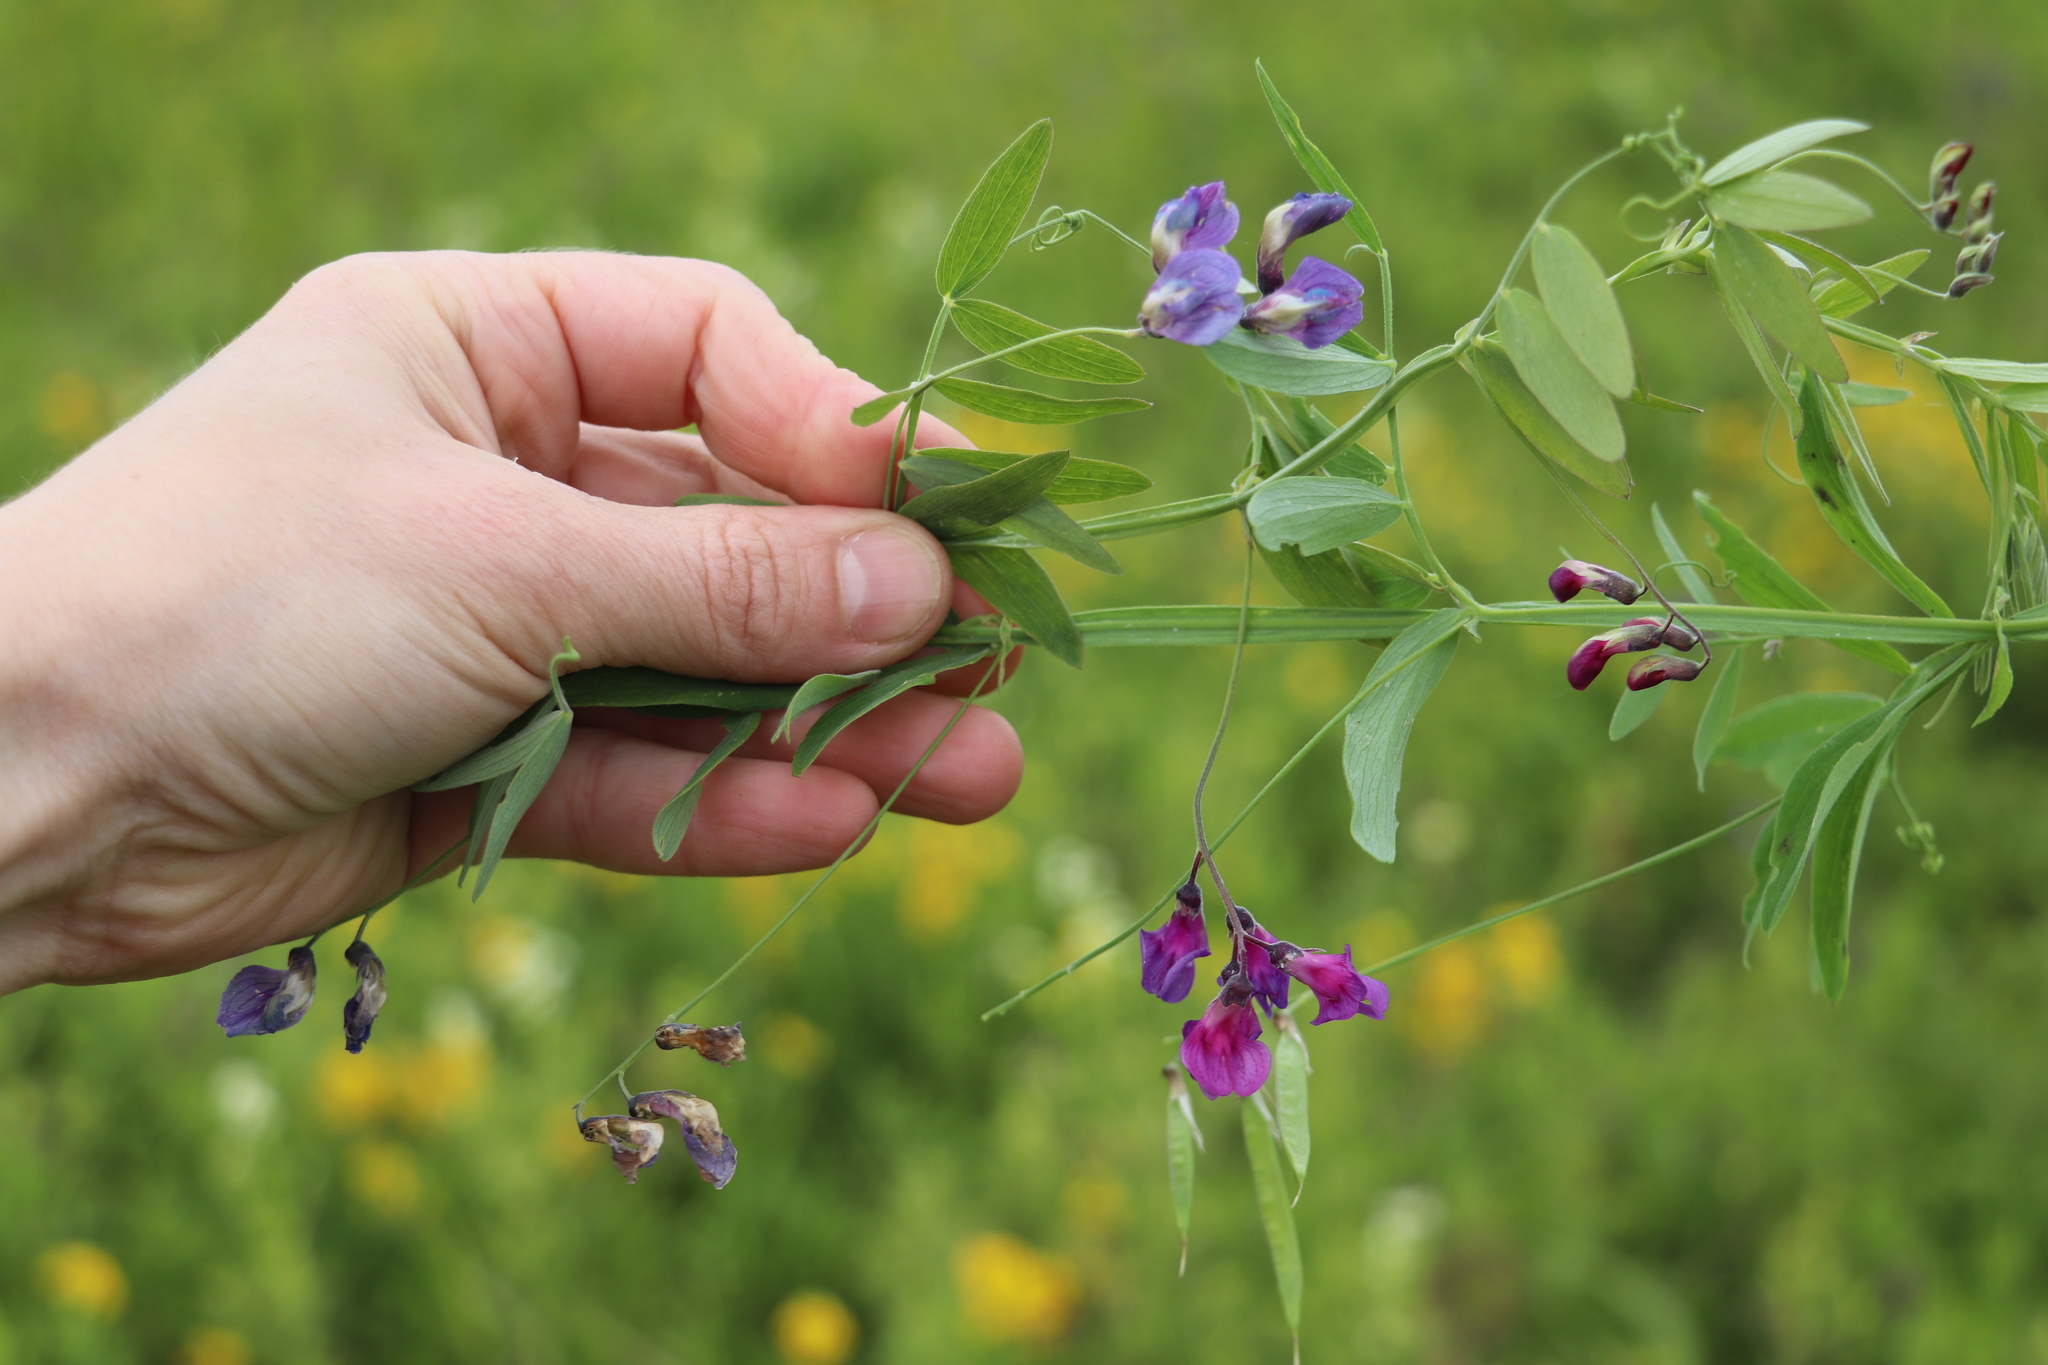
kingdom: Plantae
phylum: Tracheophyta
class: Magnoliopsida
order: Fabales
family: Fabaceae
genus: Lathyrus
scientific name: Lathyrus palustris
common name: Marsh pea
